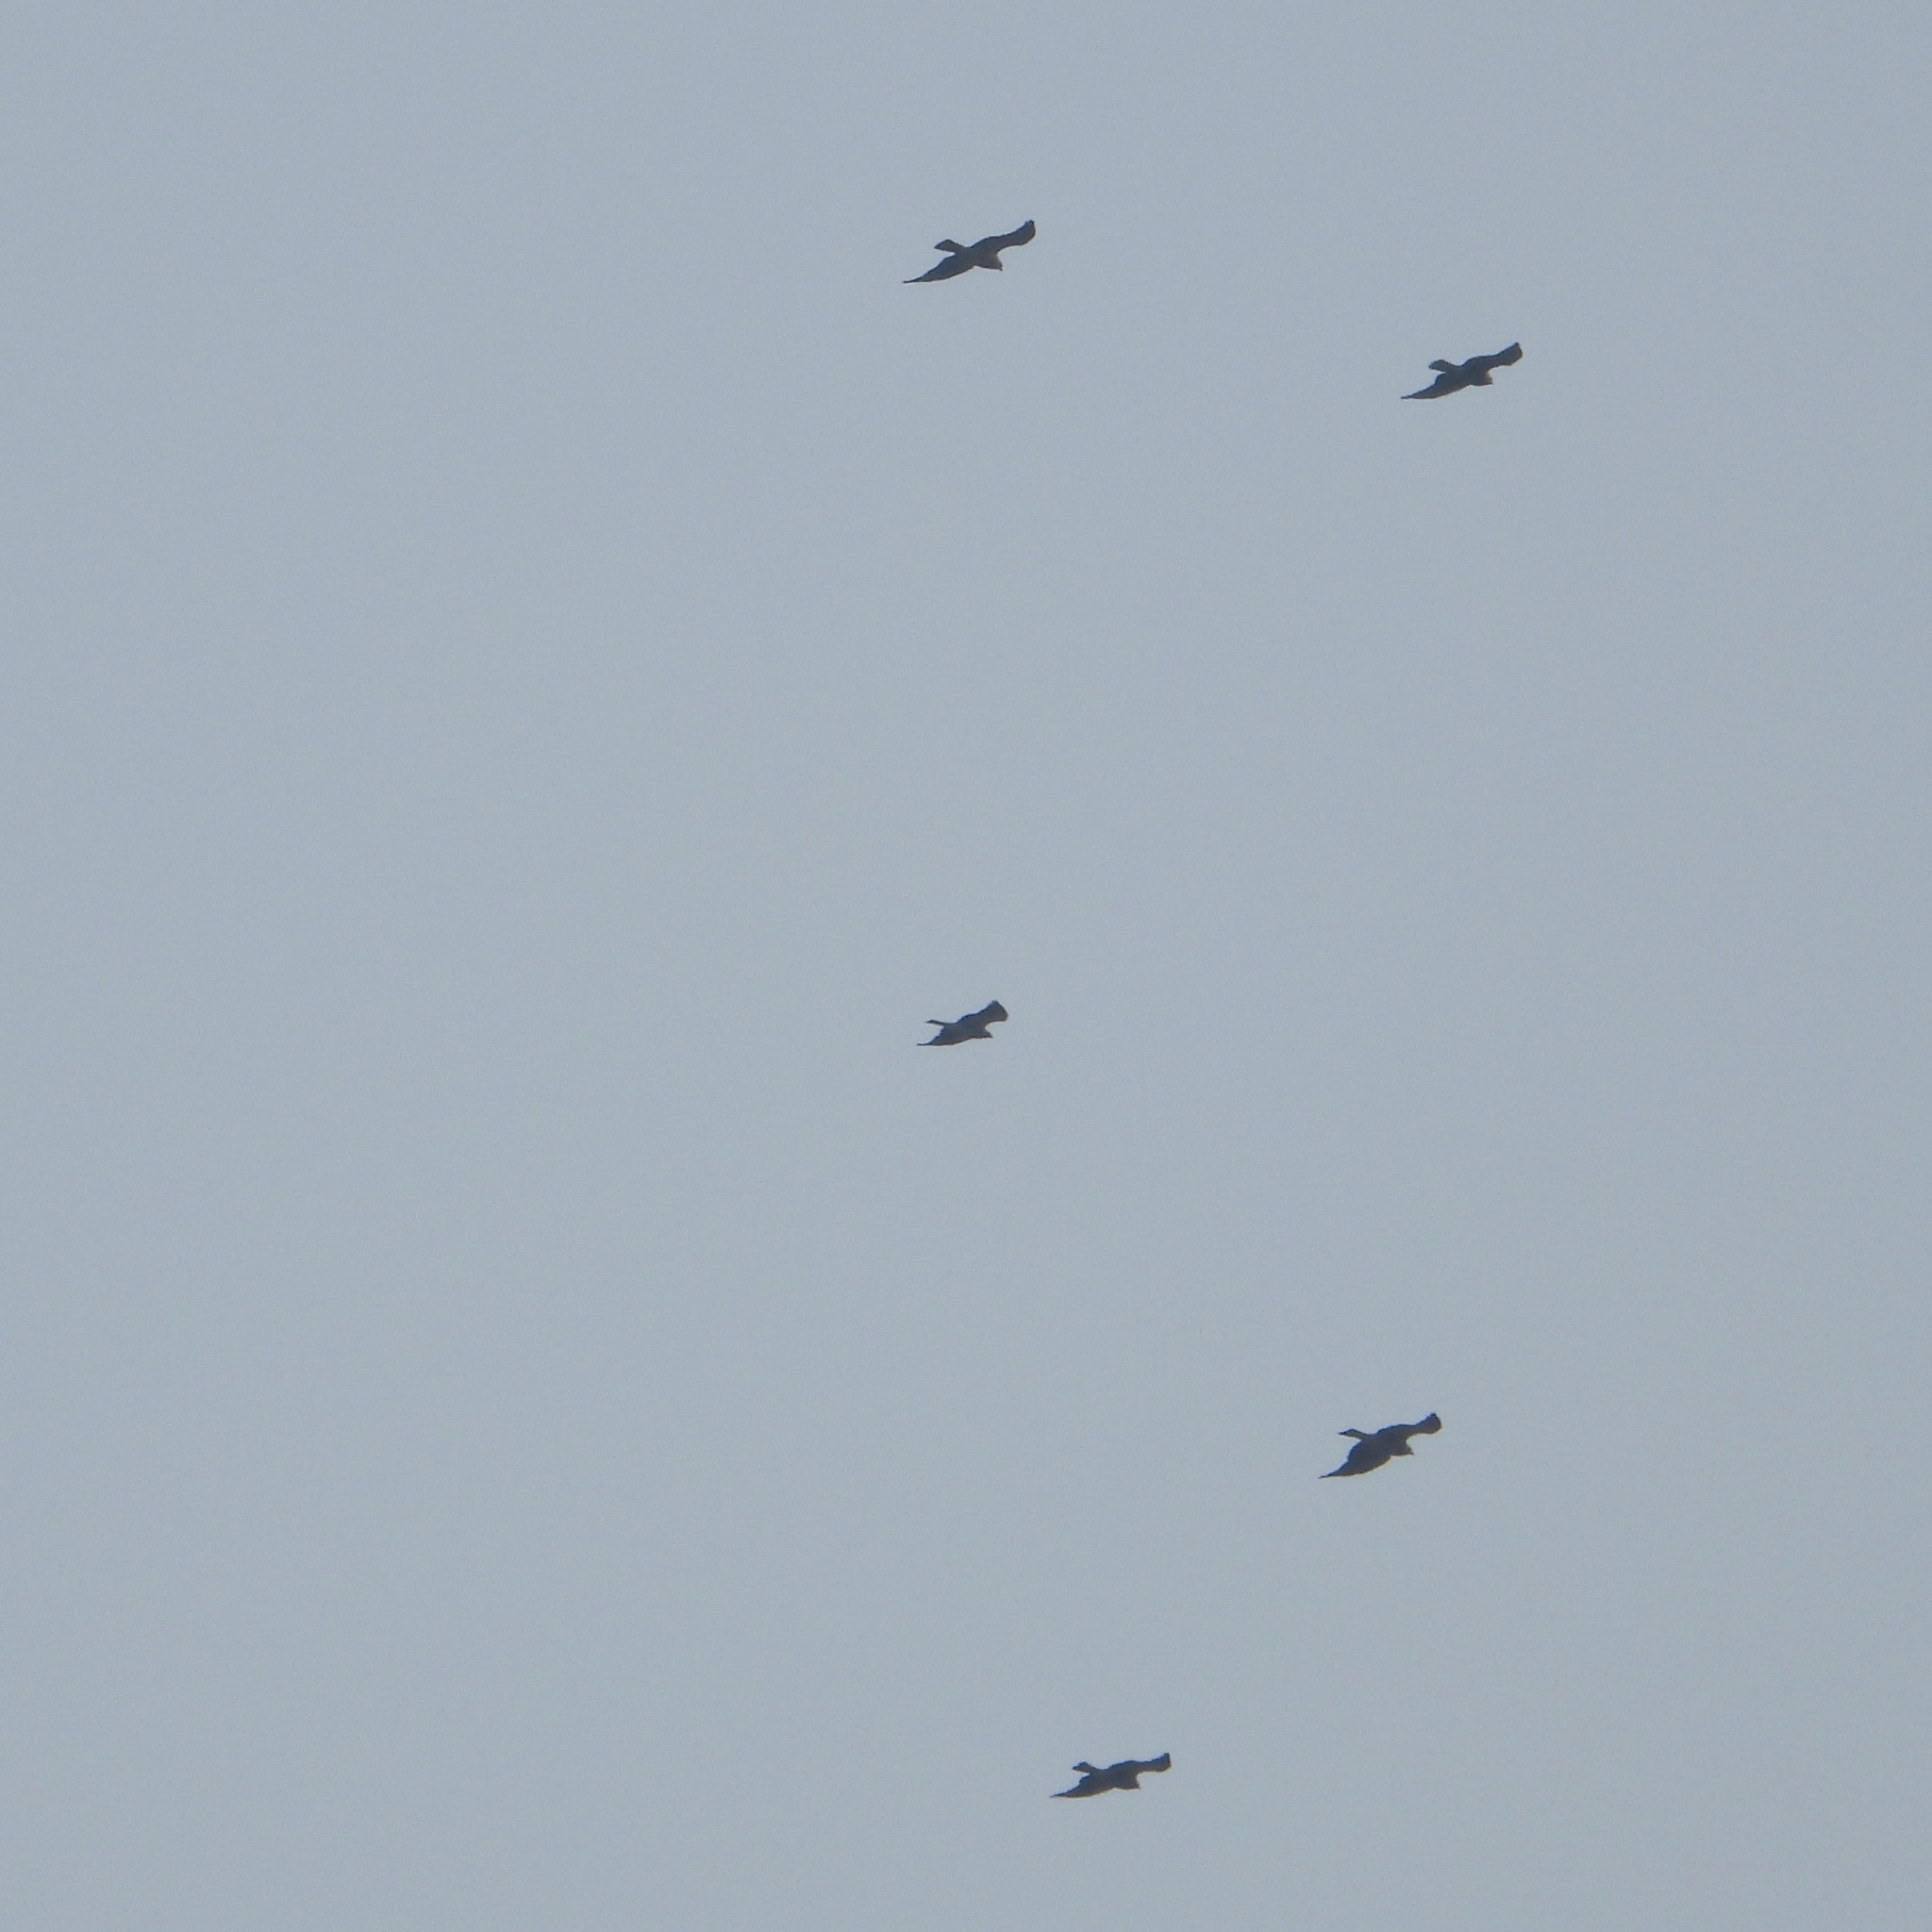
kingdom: Animalia
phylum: Chordata
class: Aves
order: Accipitriformes
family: Accipitridae
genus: Buteo
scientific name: Buteo swainsoni
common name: Swainson's hawk
